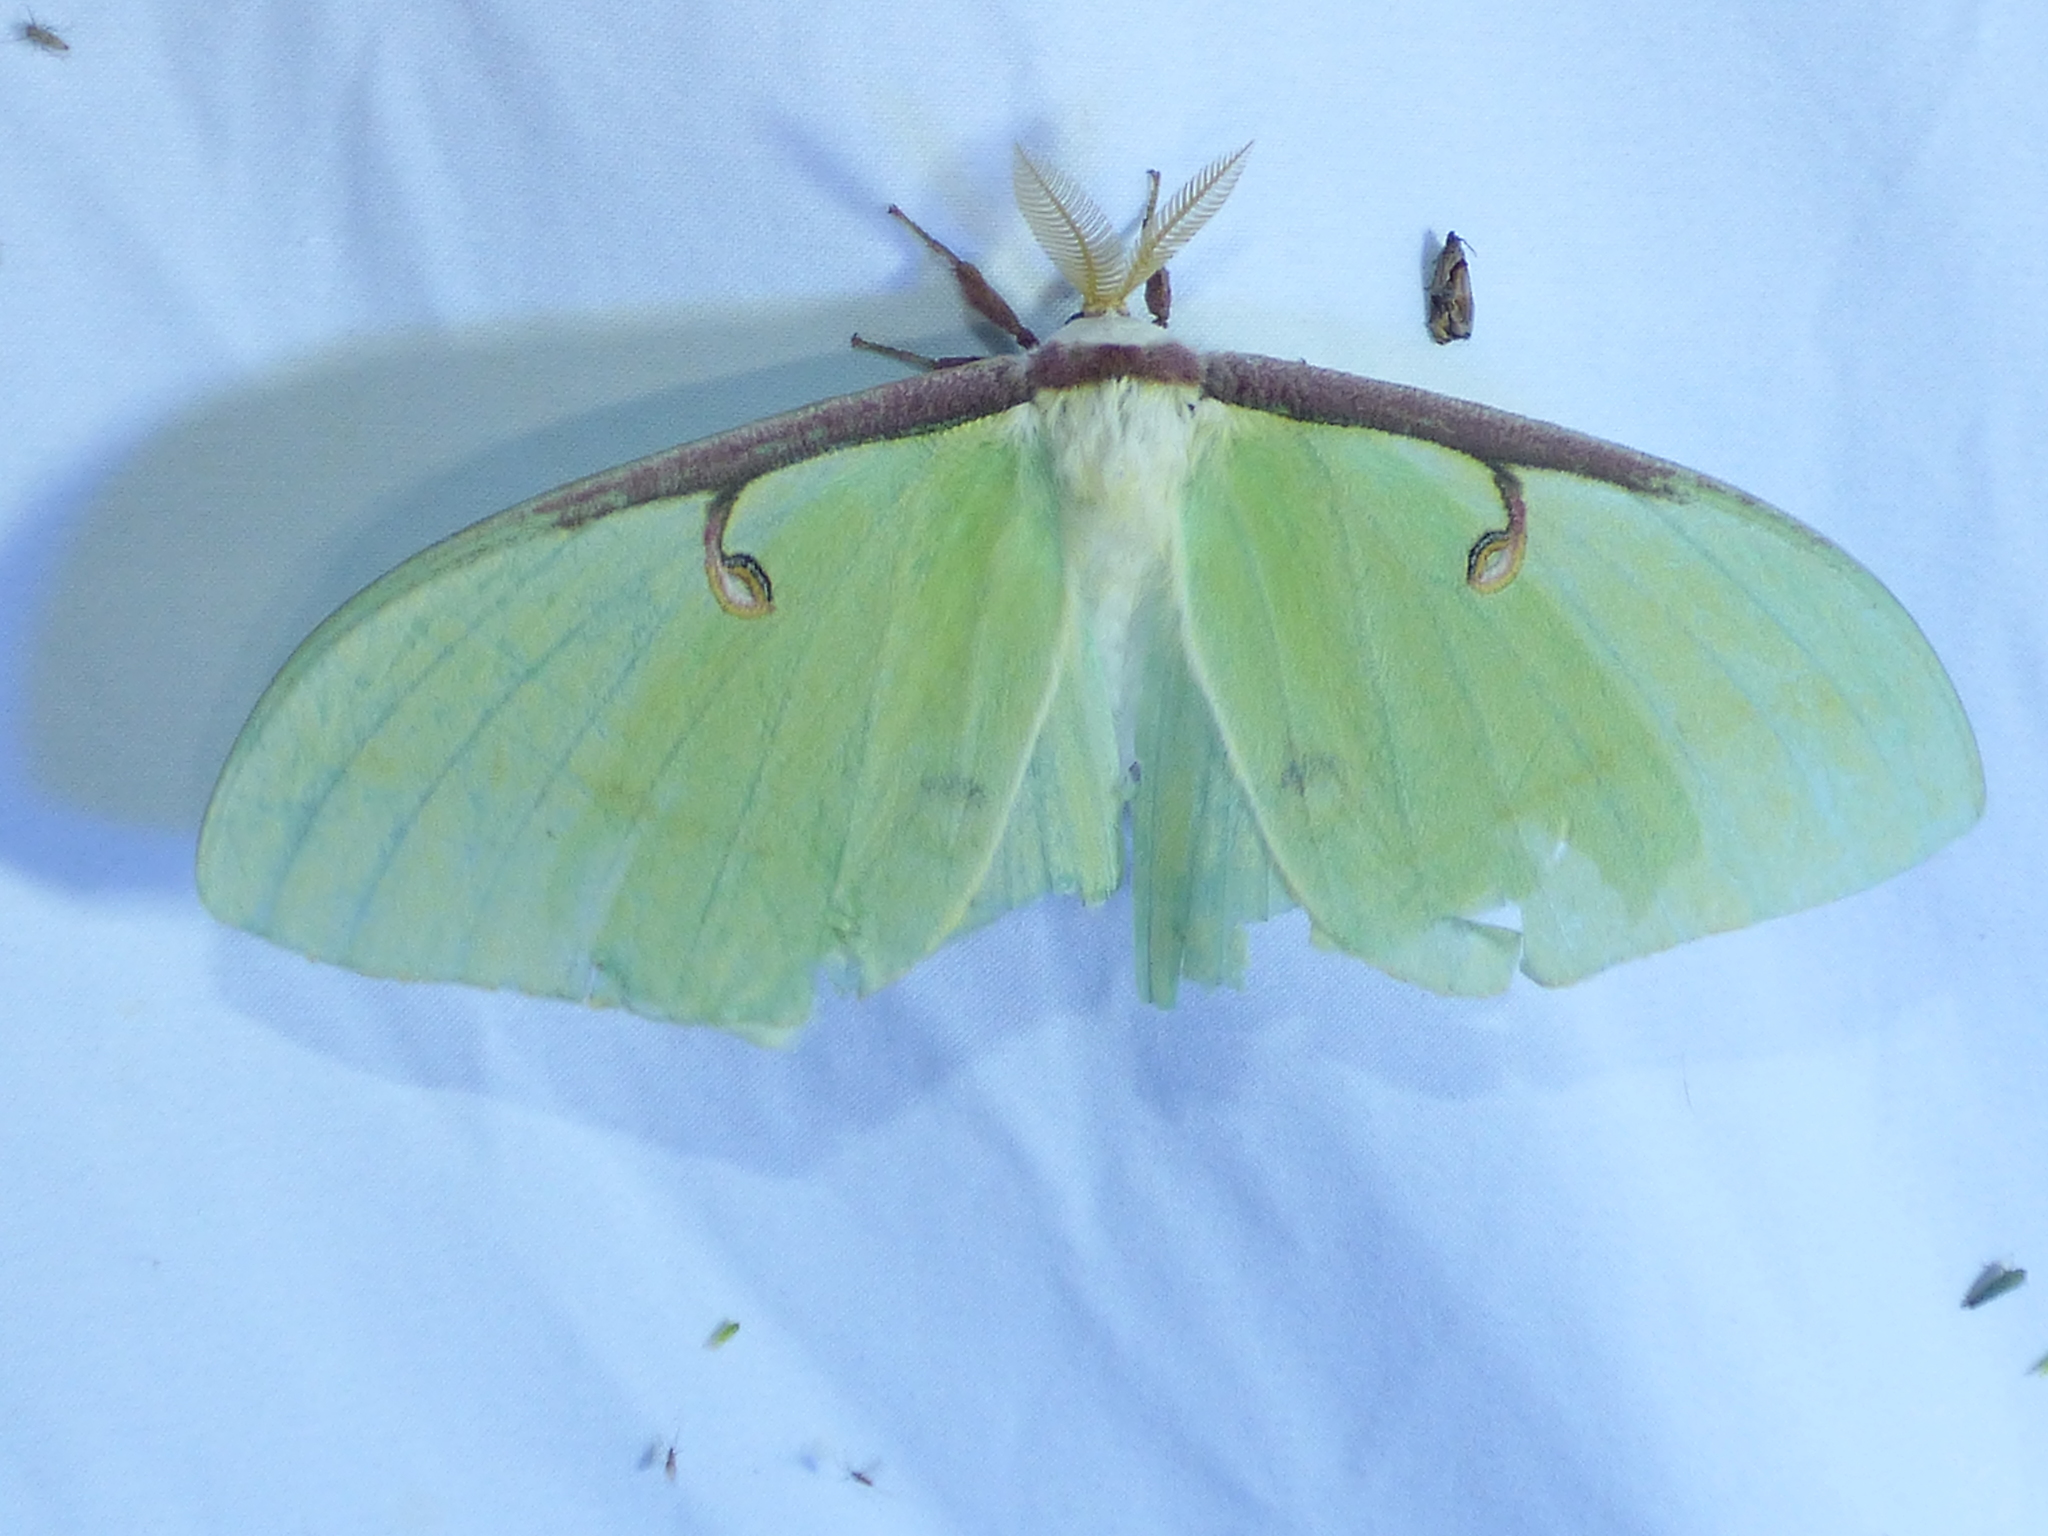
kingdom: Animalia
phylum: Arthropoda
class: Insecta
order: Lepidoptera
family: Saturniidae
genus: Actias
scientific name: Actias luna
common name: Luna moth
